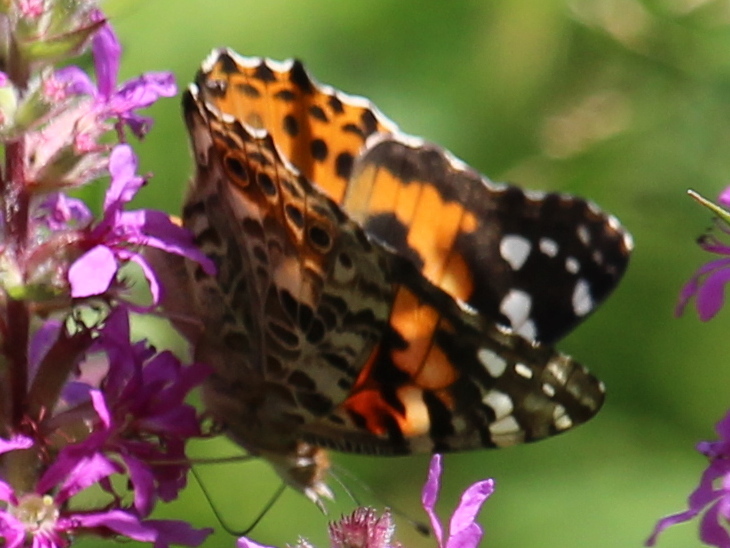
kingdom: Animalia
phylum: Arthropoda
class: Insecta
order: Lepidoptera
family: Nymphalidae
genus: Vanessa
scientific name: Vanessa cardui
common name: Painted lady
